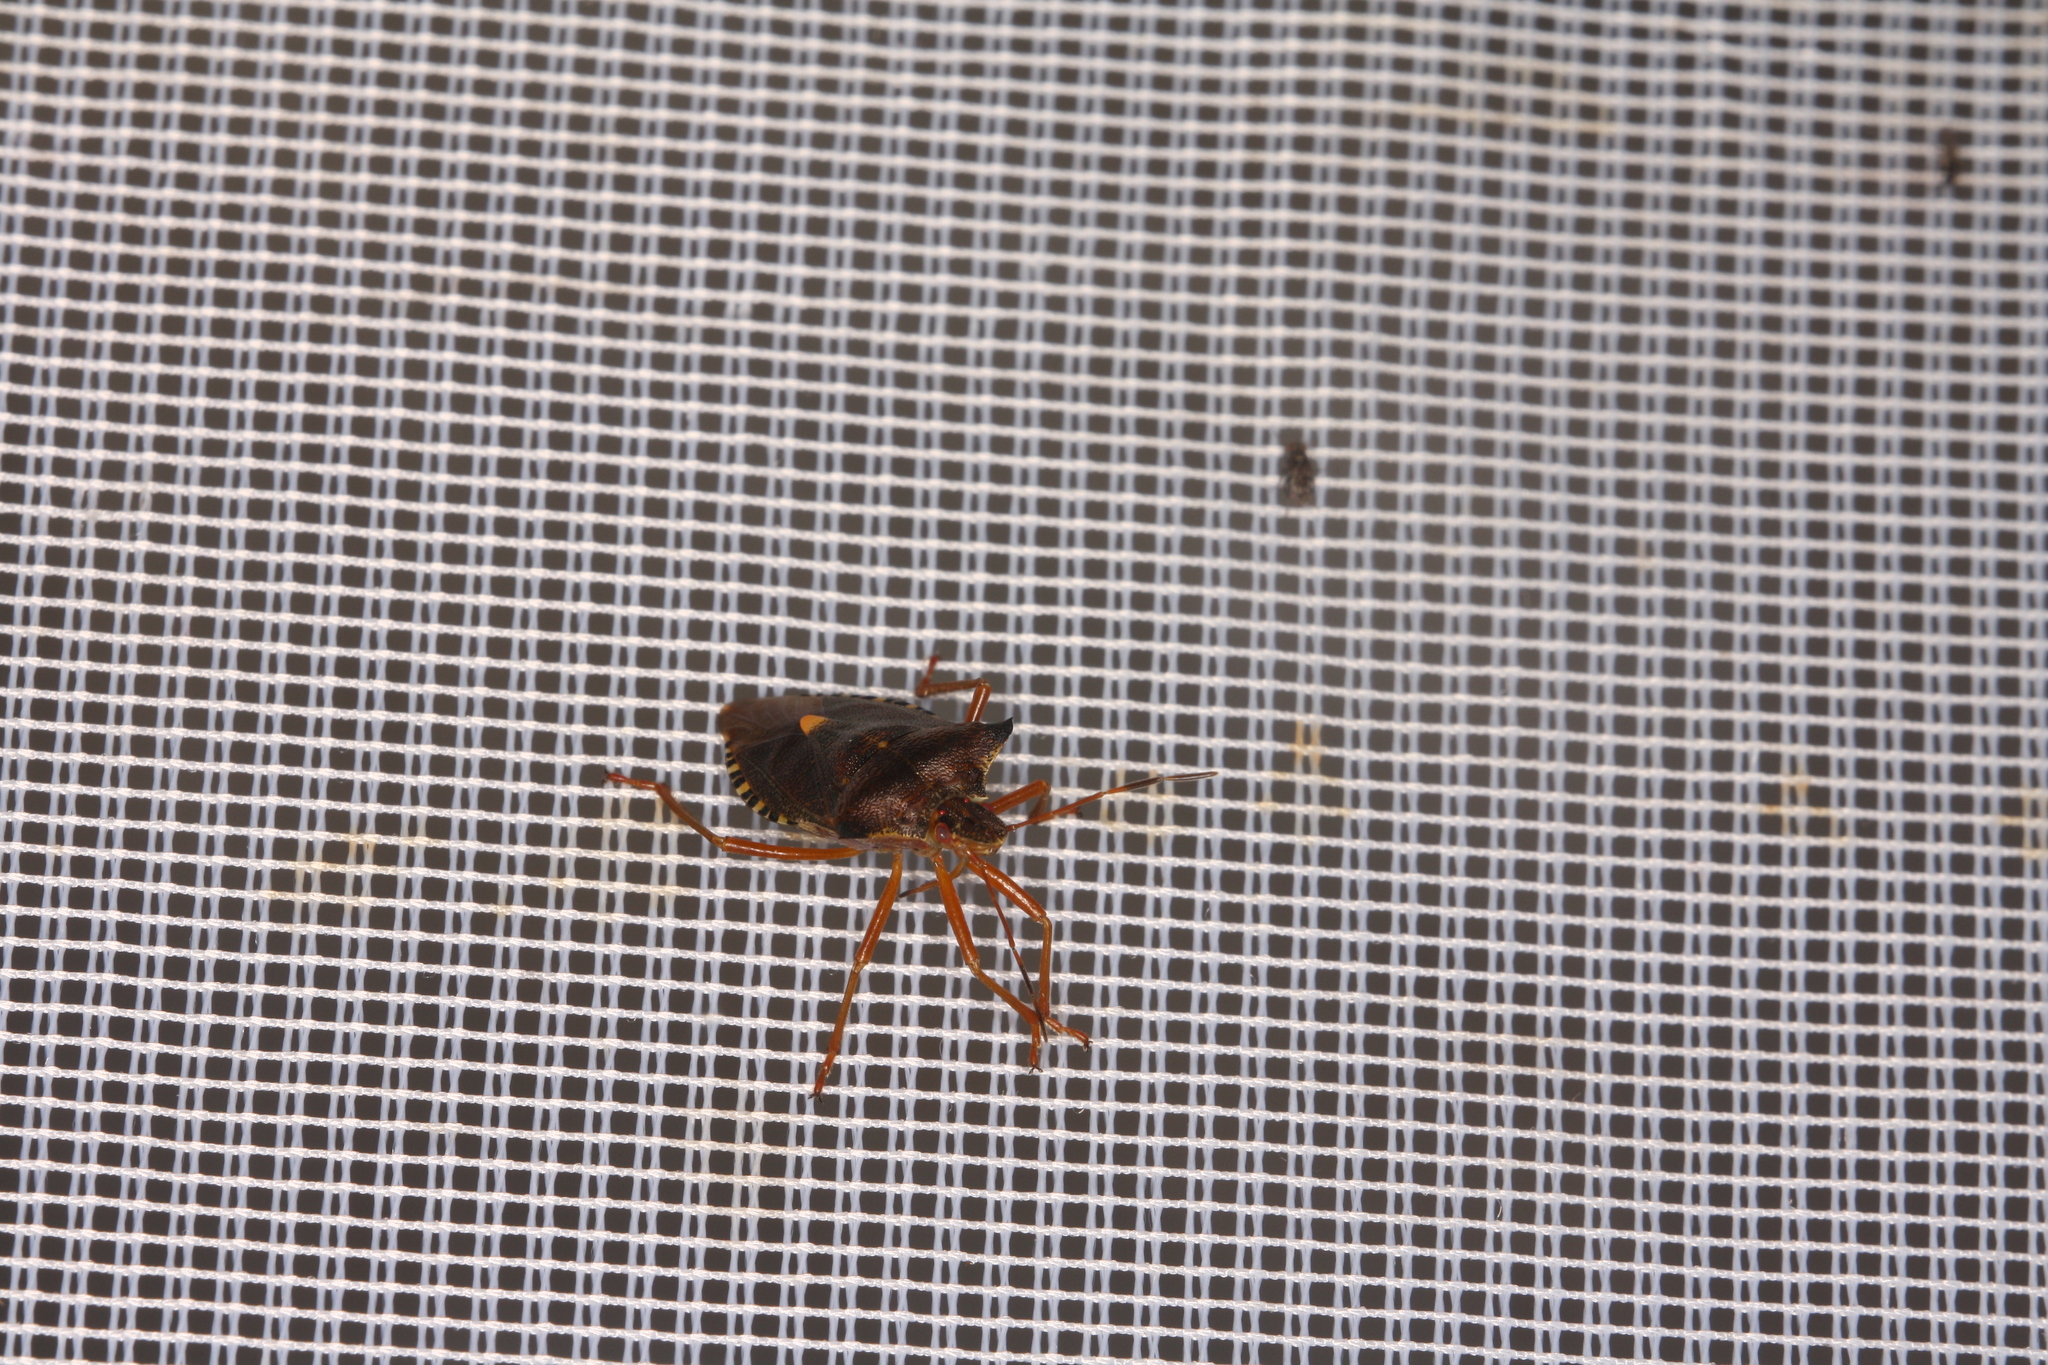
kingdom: Animalia
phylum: Arthropoda
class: Insecta
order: Hemiptera
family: Pentatomidae
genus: Pentatoma
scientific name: Pentatoma rufipes
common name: Forest bug
